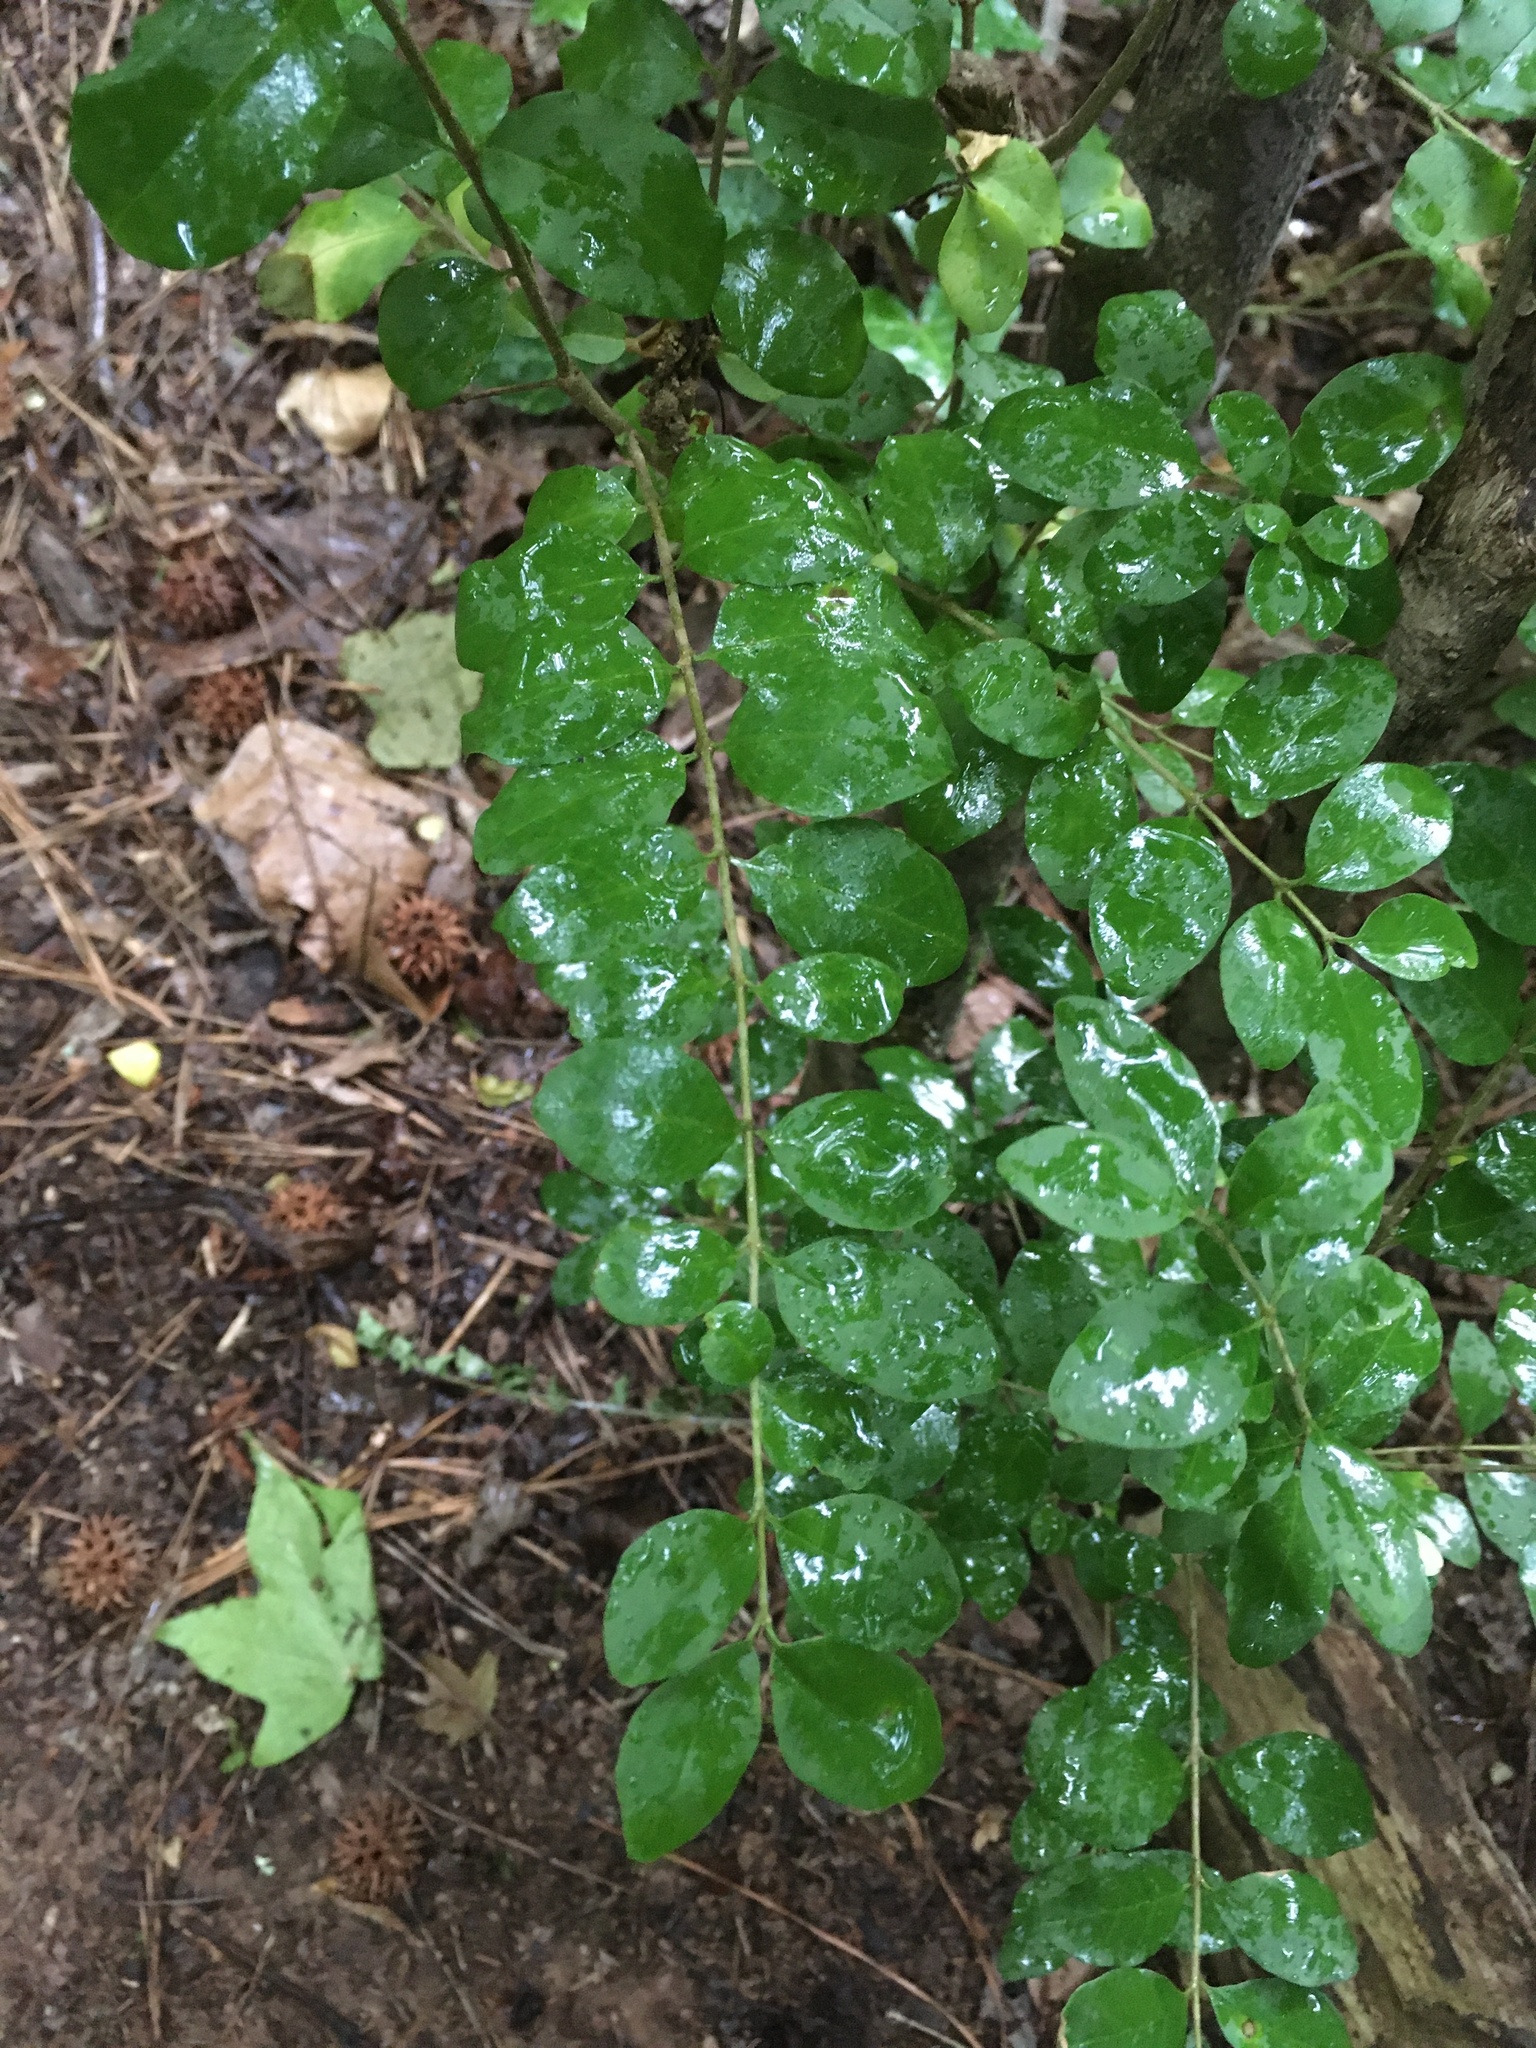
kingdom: Plantae
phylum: Tracheophyta
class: Magnoliopsida
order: Lamiales
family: Oleaceae
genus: Ligustrum
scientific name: Ligustrum sinense
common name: Chinese privet
